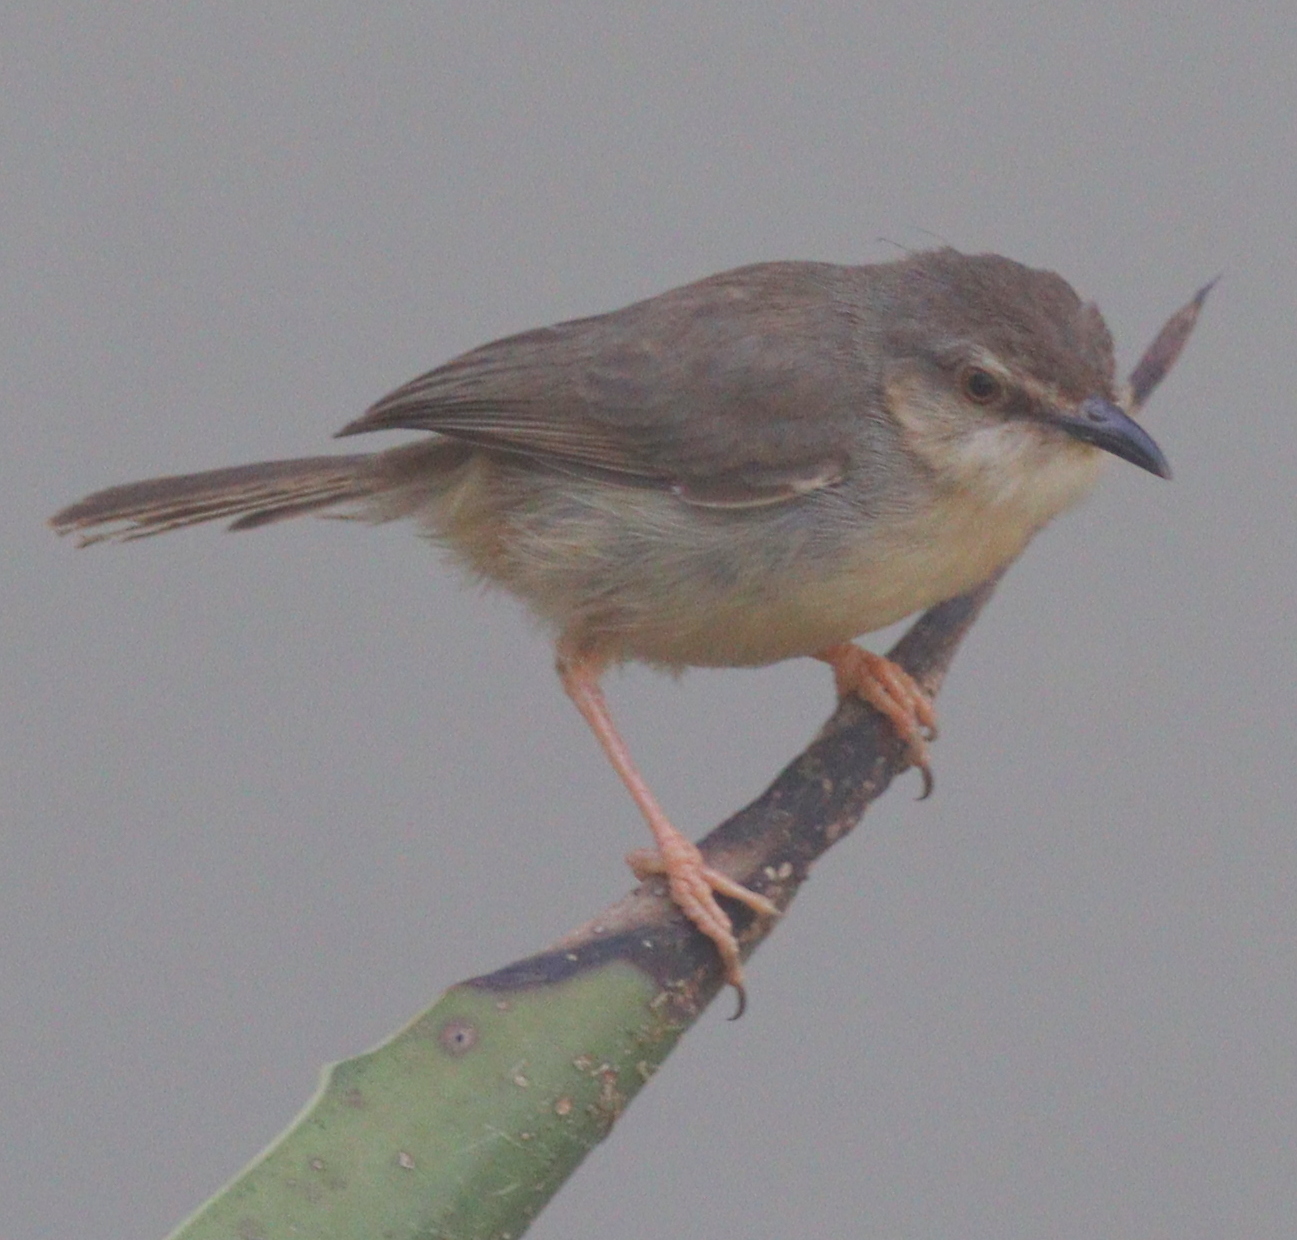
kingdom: Animalia
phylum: Chordata
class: Aves
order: Passeriformes
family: Cisticolidae
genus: Prinia
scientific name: Prinia subflava
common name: Tawny-flanked prinia
